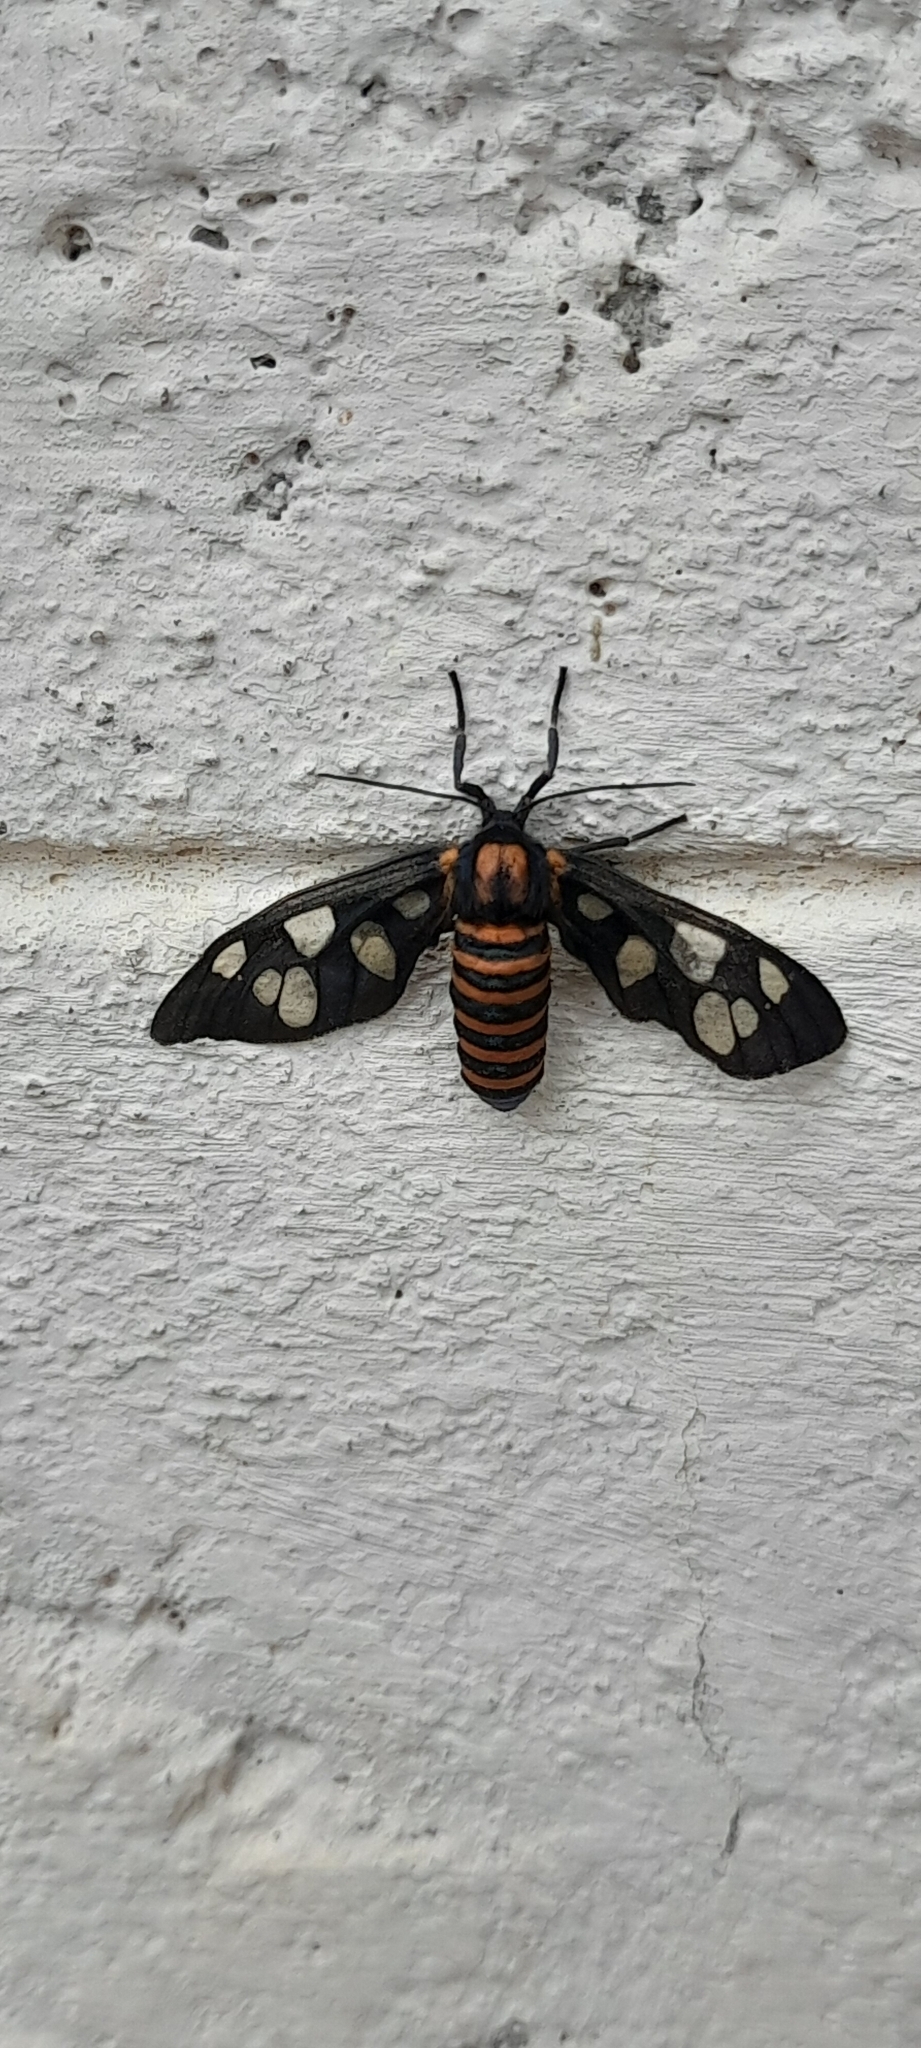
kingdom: Animalia
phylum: Arthropoda
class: Insecta
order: Lepidoptera
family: Erebidae
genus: Amata
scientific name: Amata passalis
